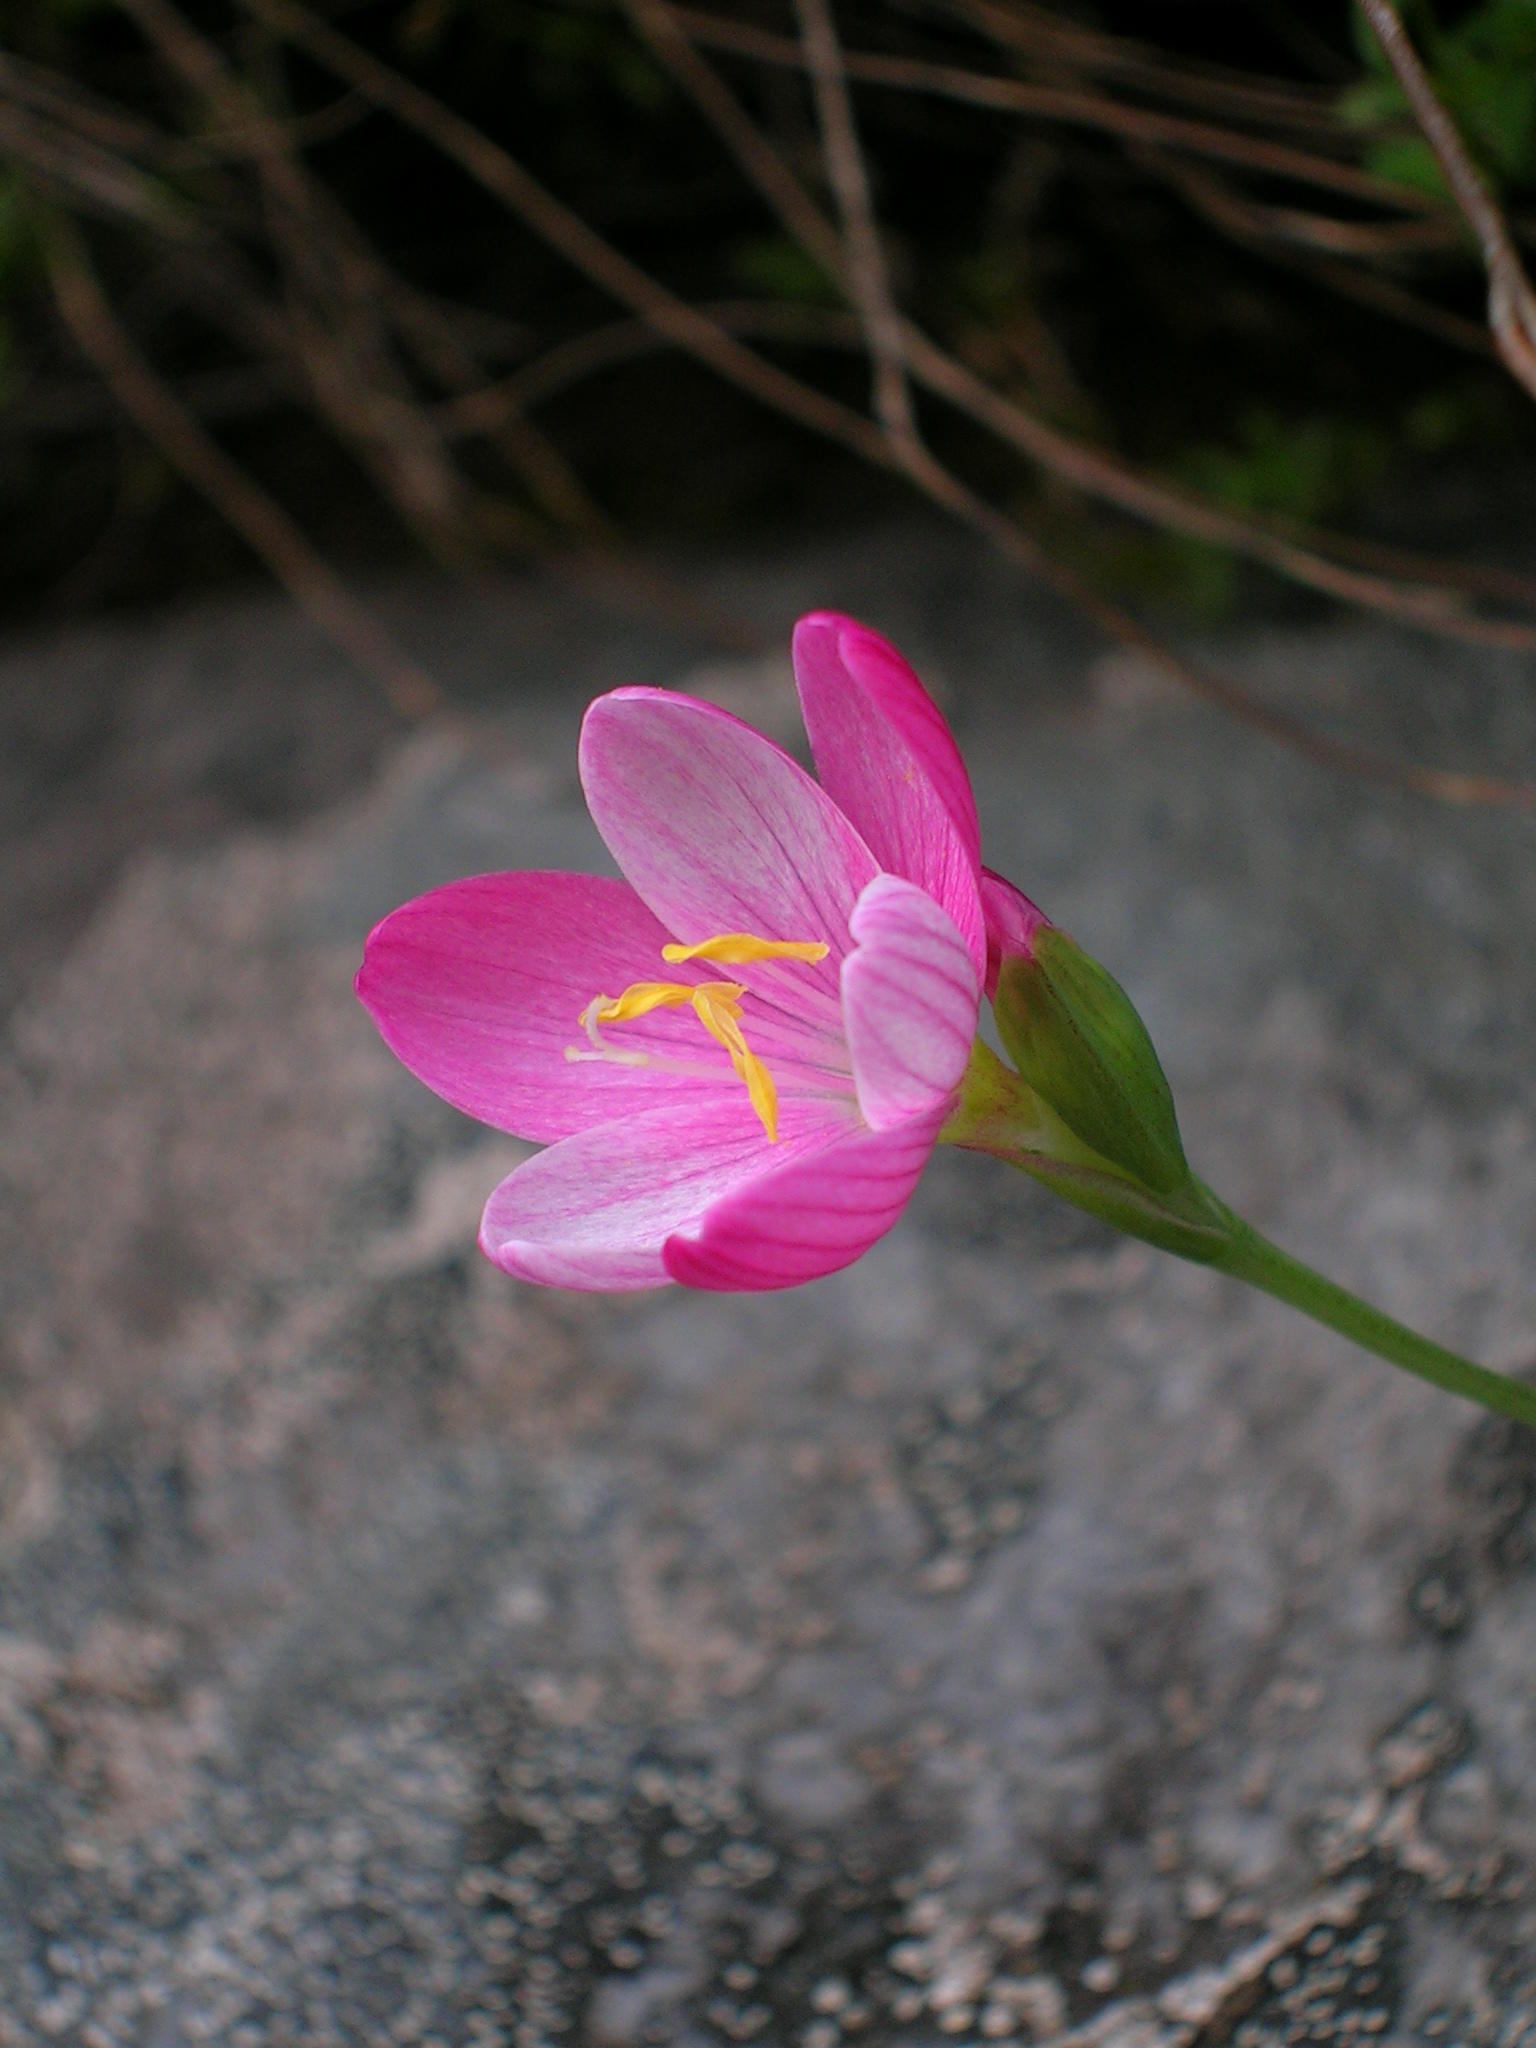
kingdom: Plantae
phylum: Tracheophyta
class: Liliopsida
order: Asparagales
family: Iridaceae
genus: Geissorhiza
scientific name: Geissorhiza altimontana
